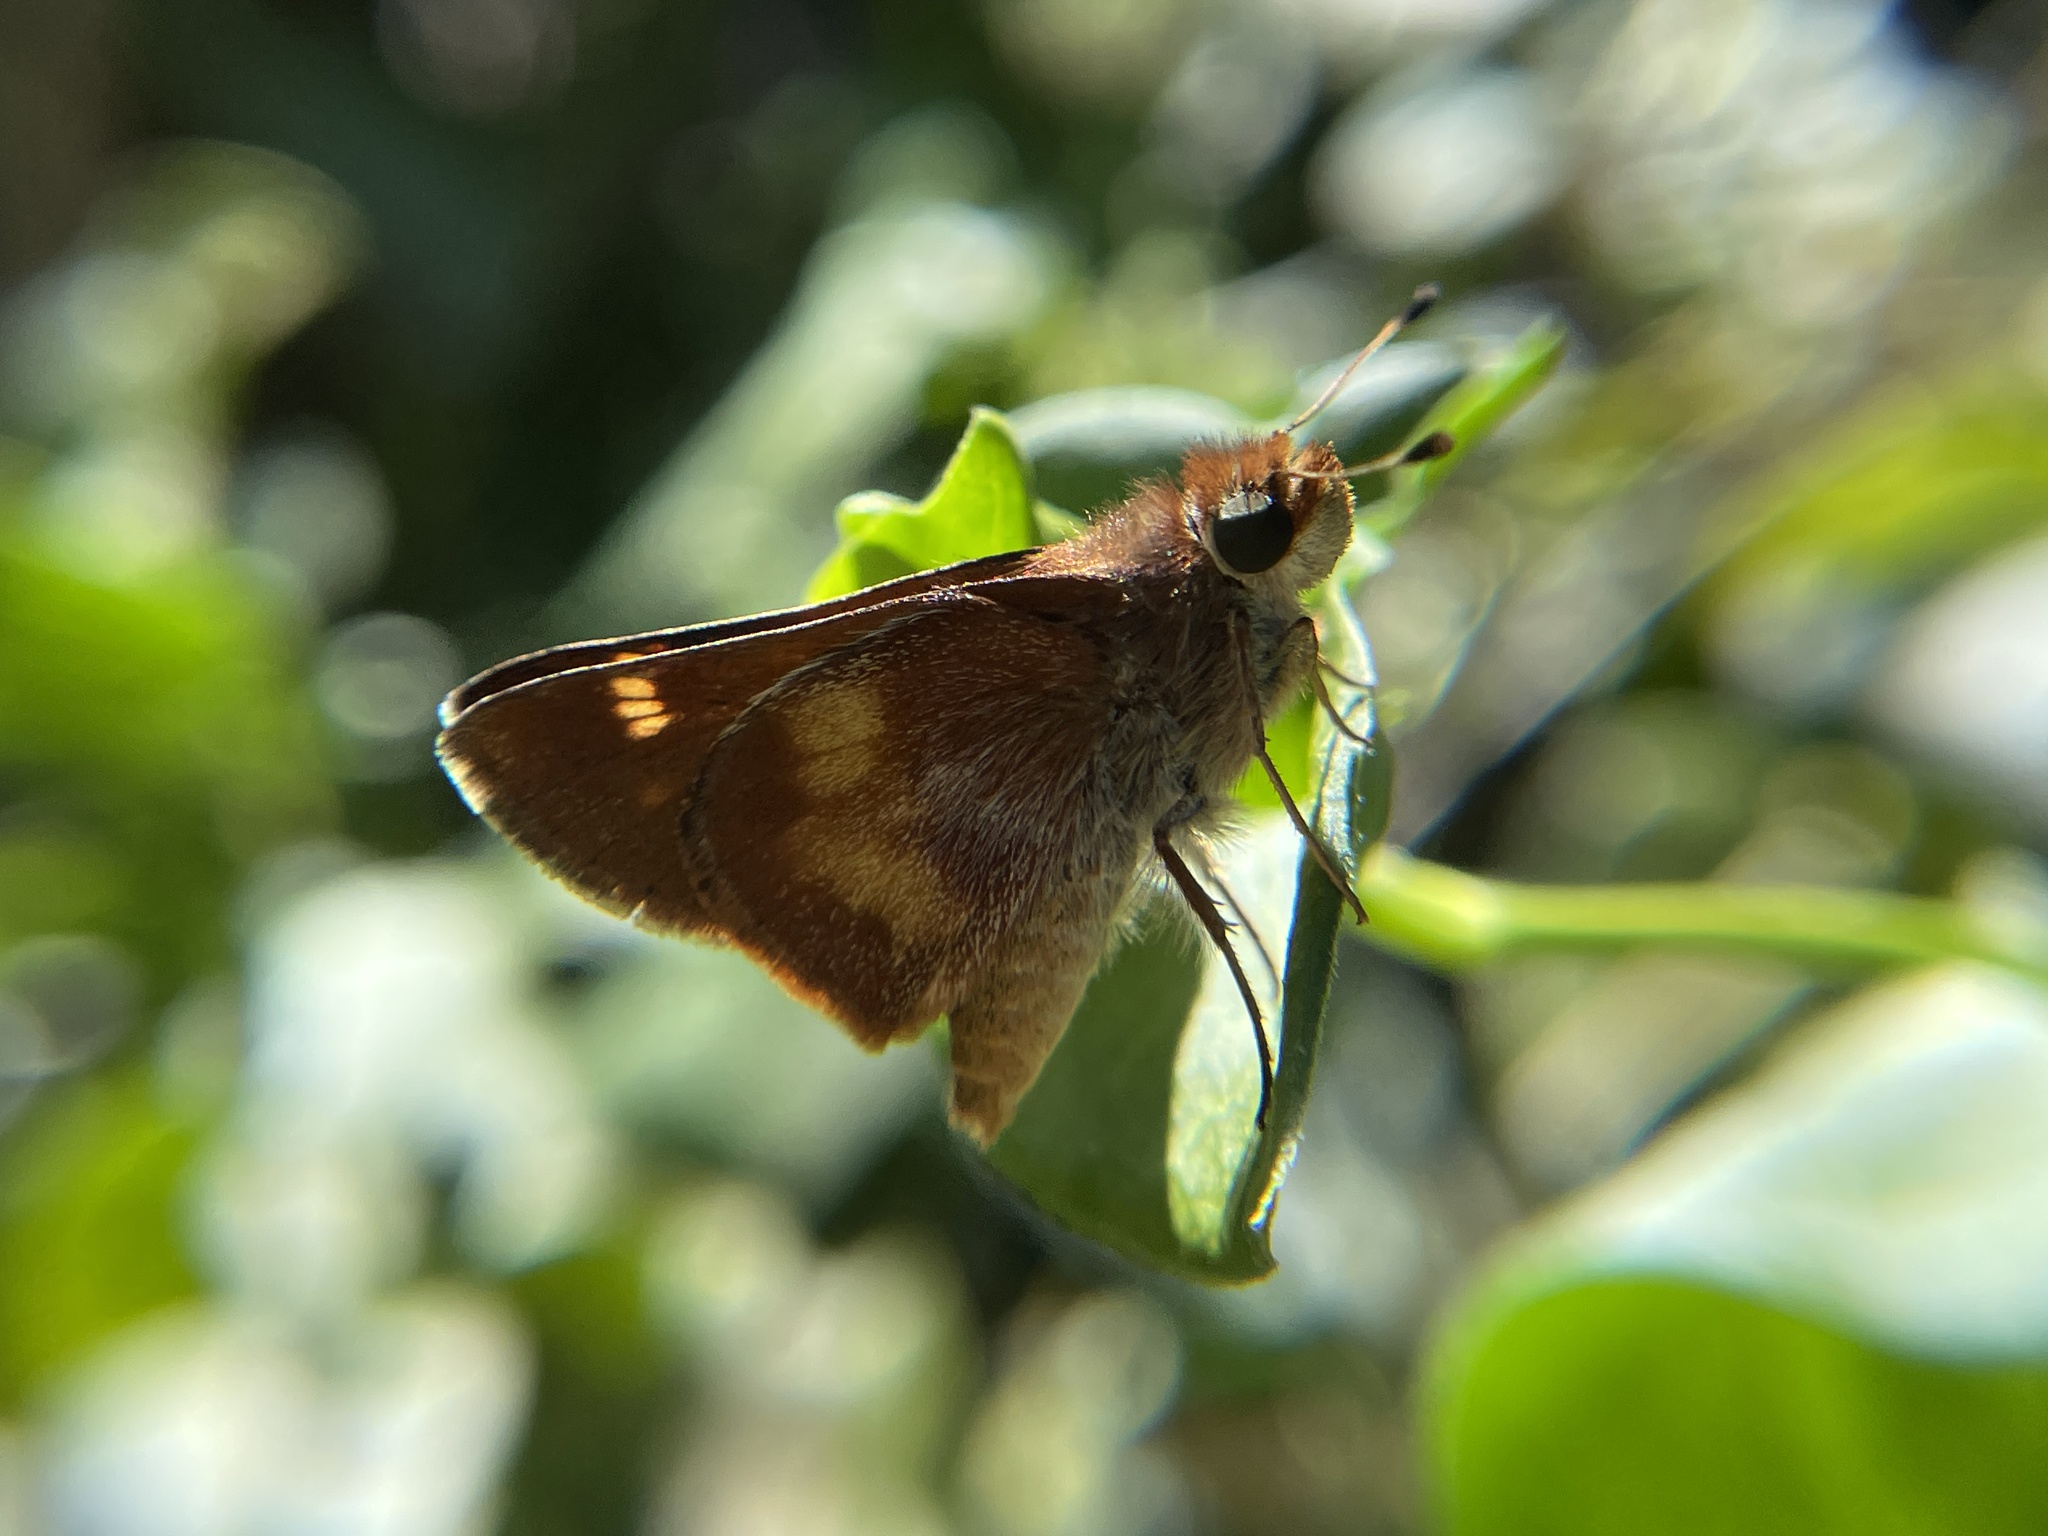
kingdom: Animalia
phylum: Arthropoda
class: Insecta
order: Lepidoptera
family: Hesperiidae
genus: Lon
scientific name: Lon melane
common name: Umber skipper
